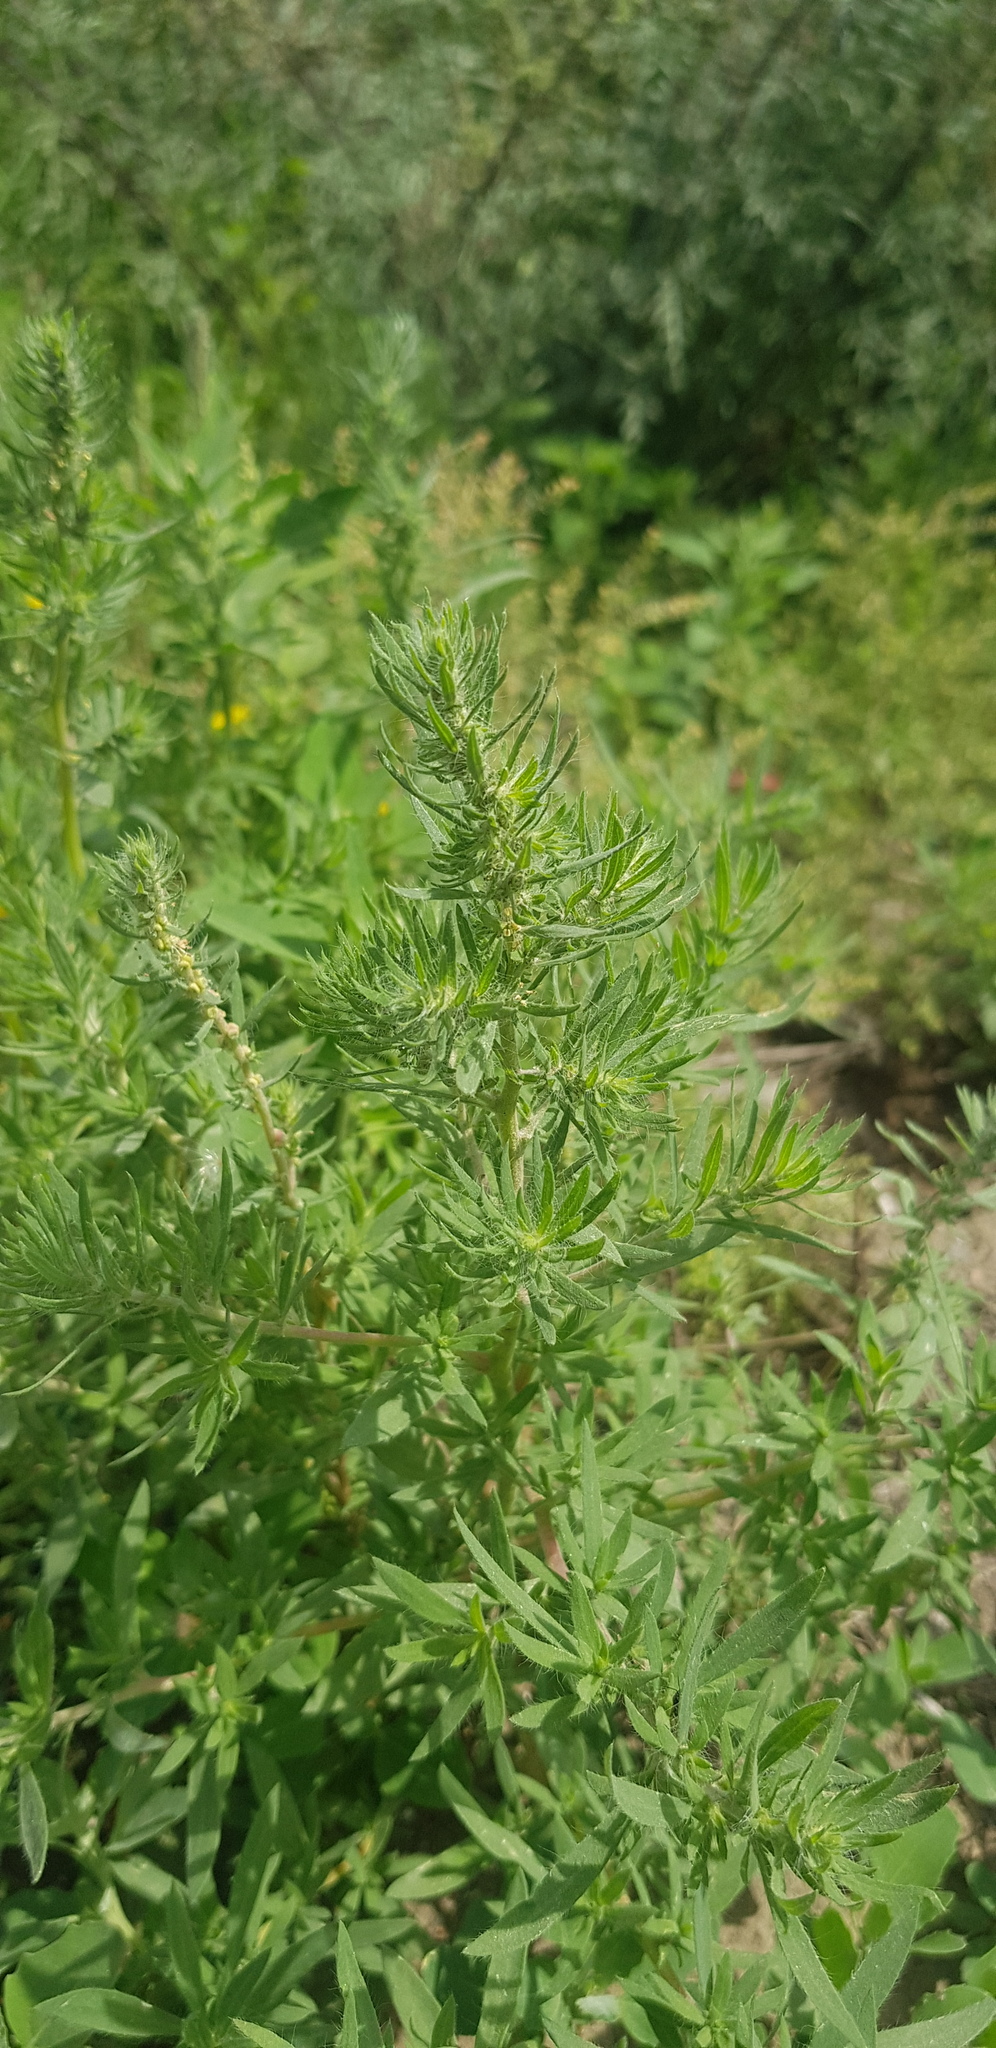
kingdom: Plantae
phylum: Tracheophyta
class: Magnoliopsida
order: Caryophyllales
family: Amaranthaceae
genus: Bassia
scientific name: Bassia scoparia
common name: Belvedere
